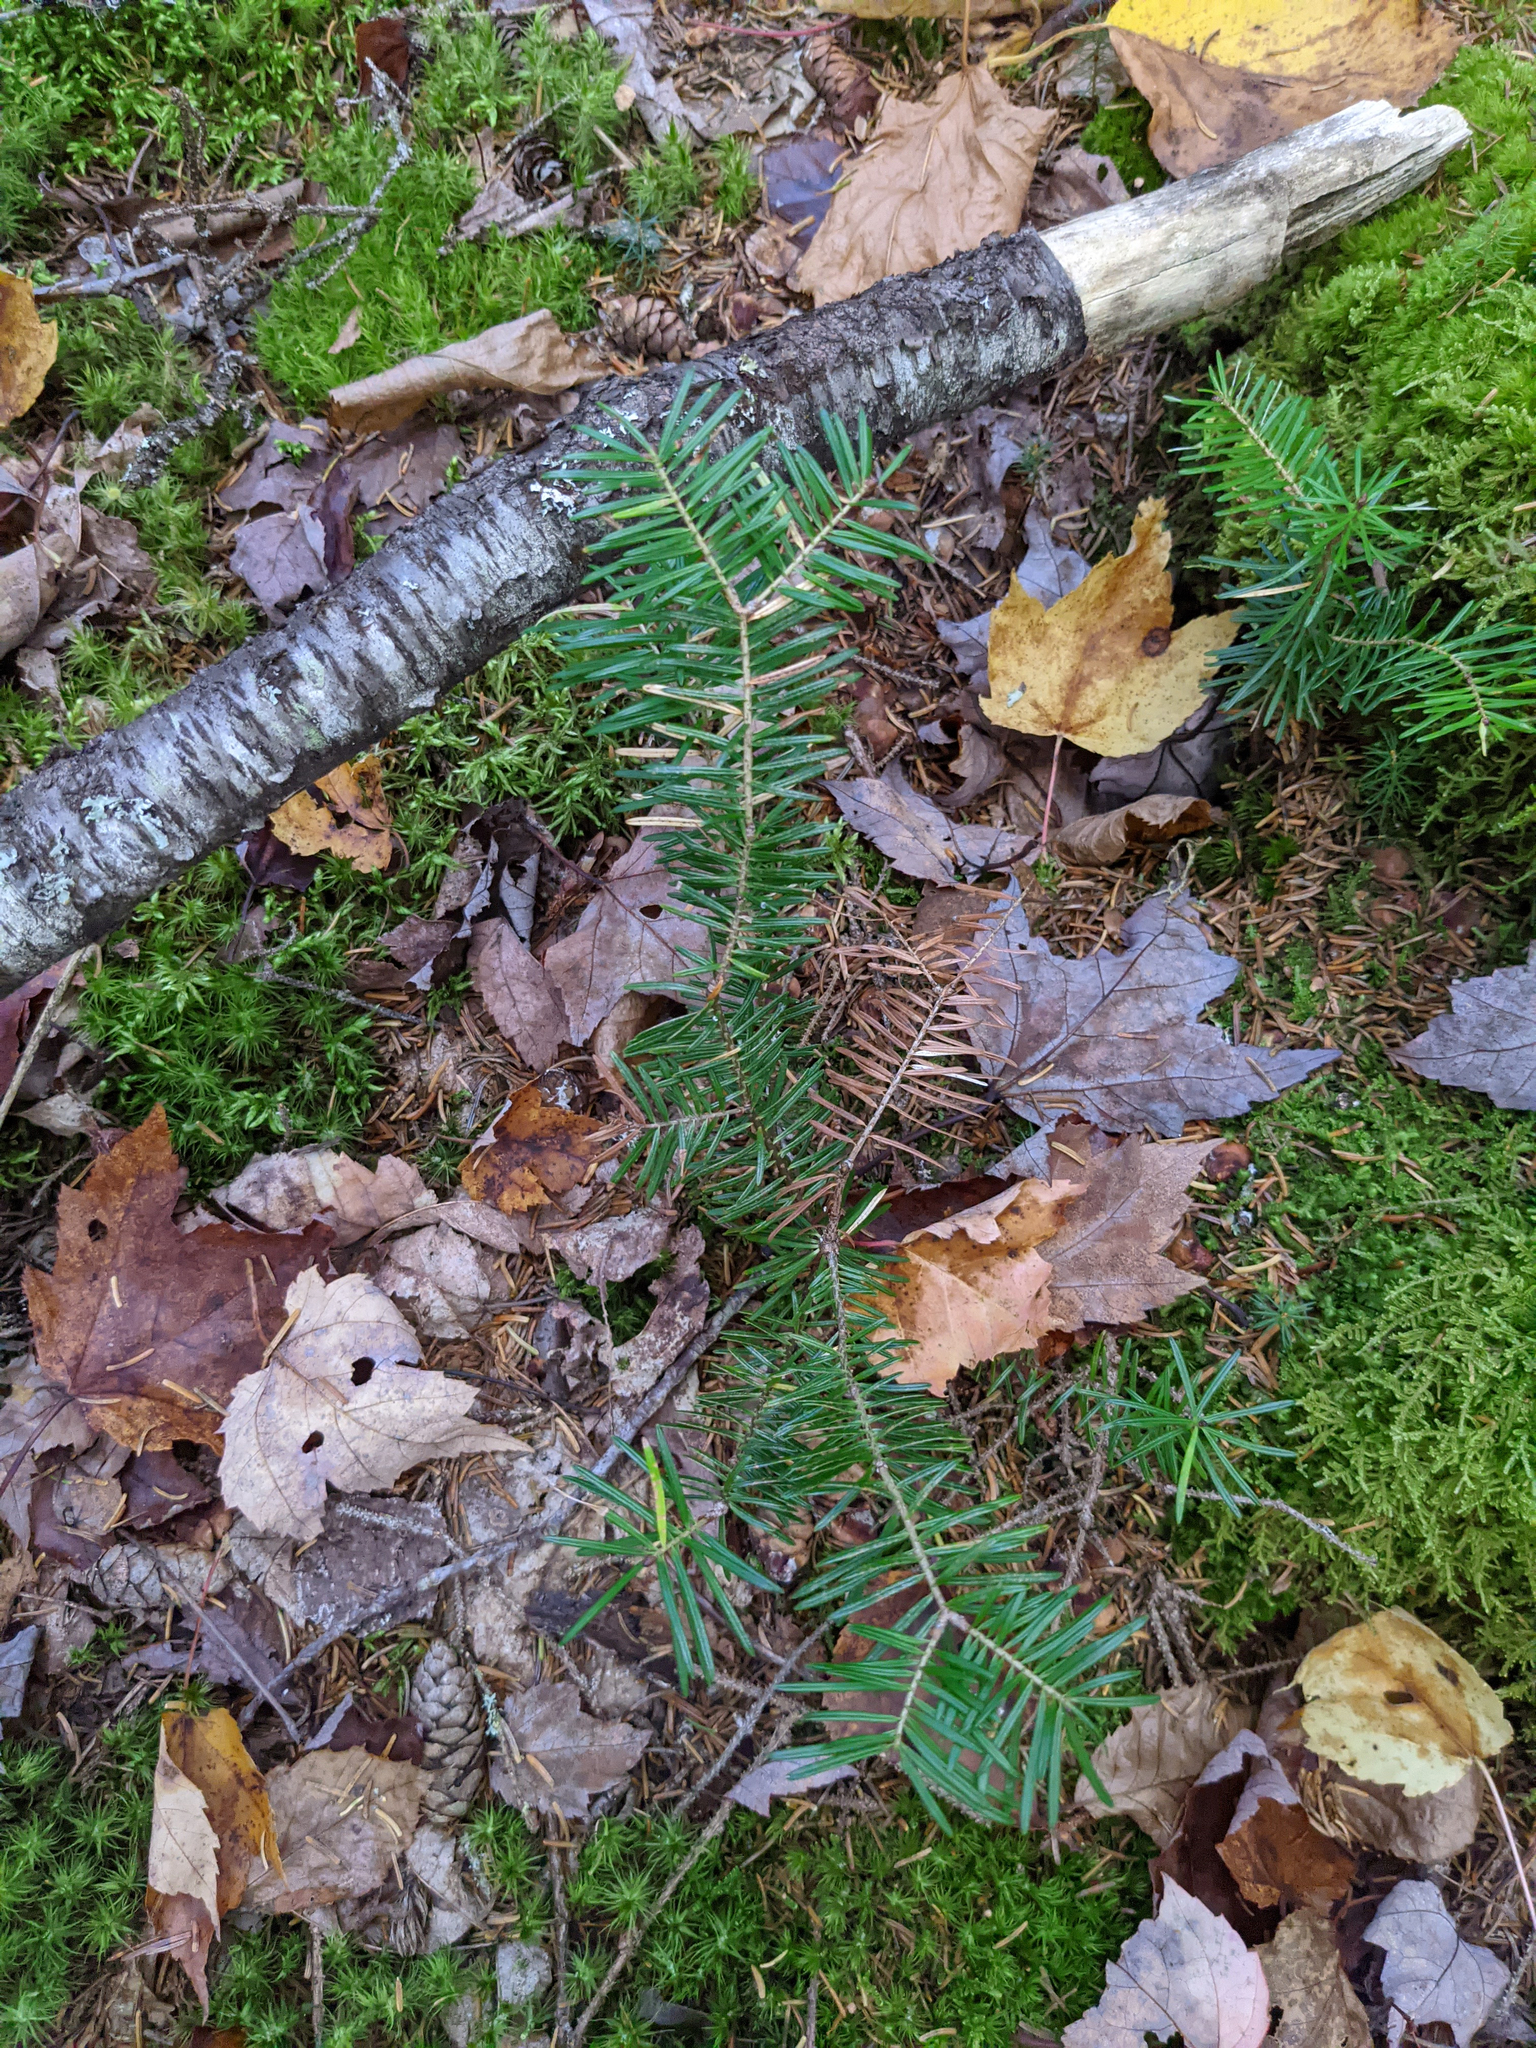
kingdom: Plantae
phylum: Tracheophyta
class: Pinopsida
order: Pinales
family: Pinaceae
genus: Abies
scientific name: Abies balsamea
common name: Balsam fir
